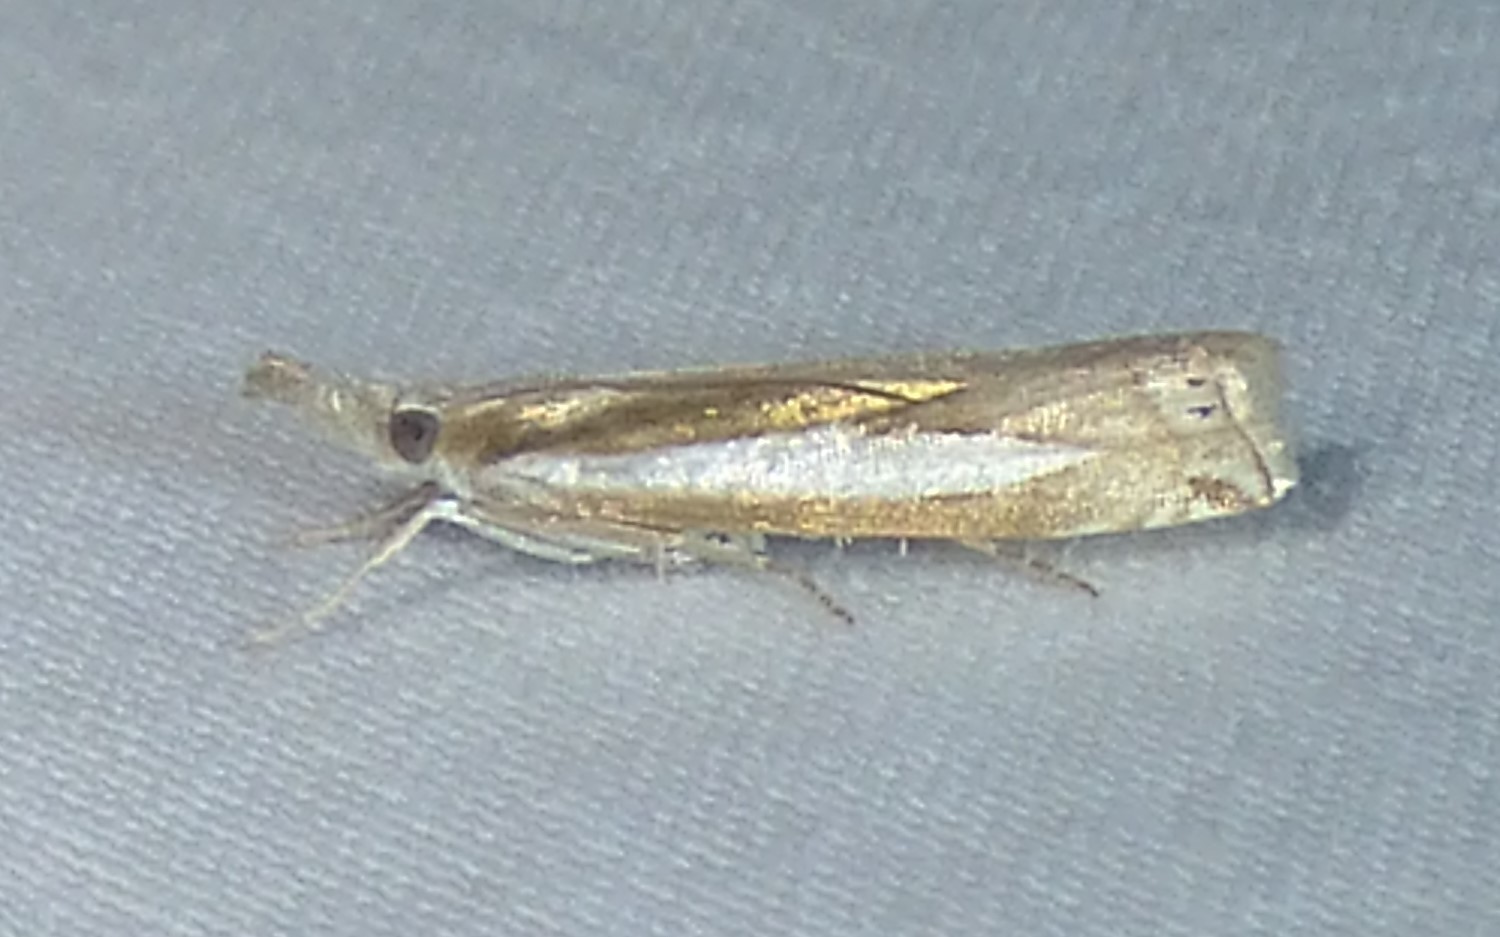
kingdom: Animalia
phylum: Arthropoda
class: Insecta
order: Lepidoptera
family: Crambidae
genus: Crambus
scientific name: Crambus praefectellus
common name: Common grass-veneer
